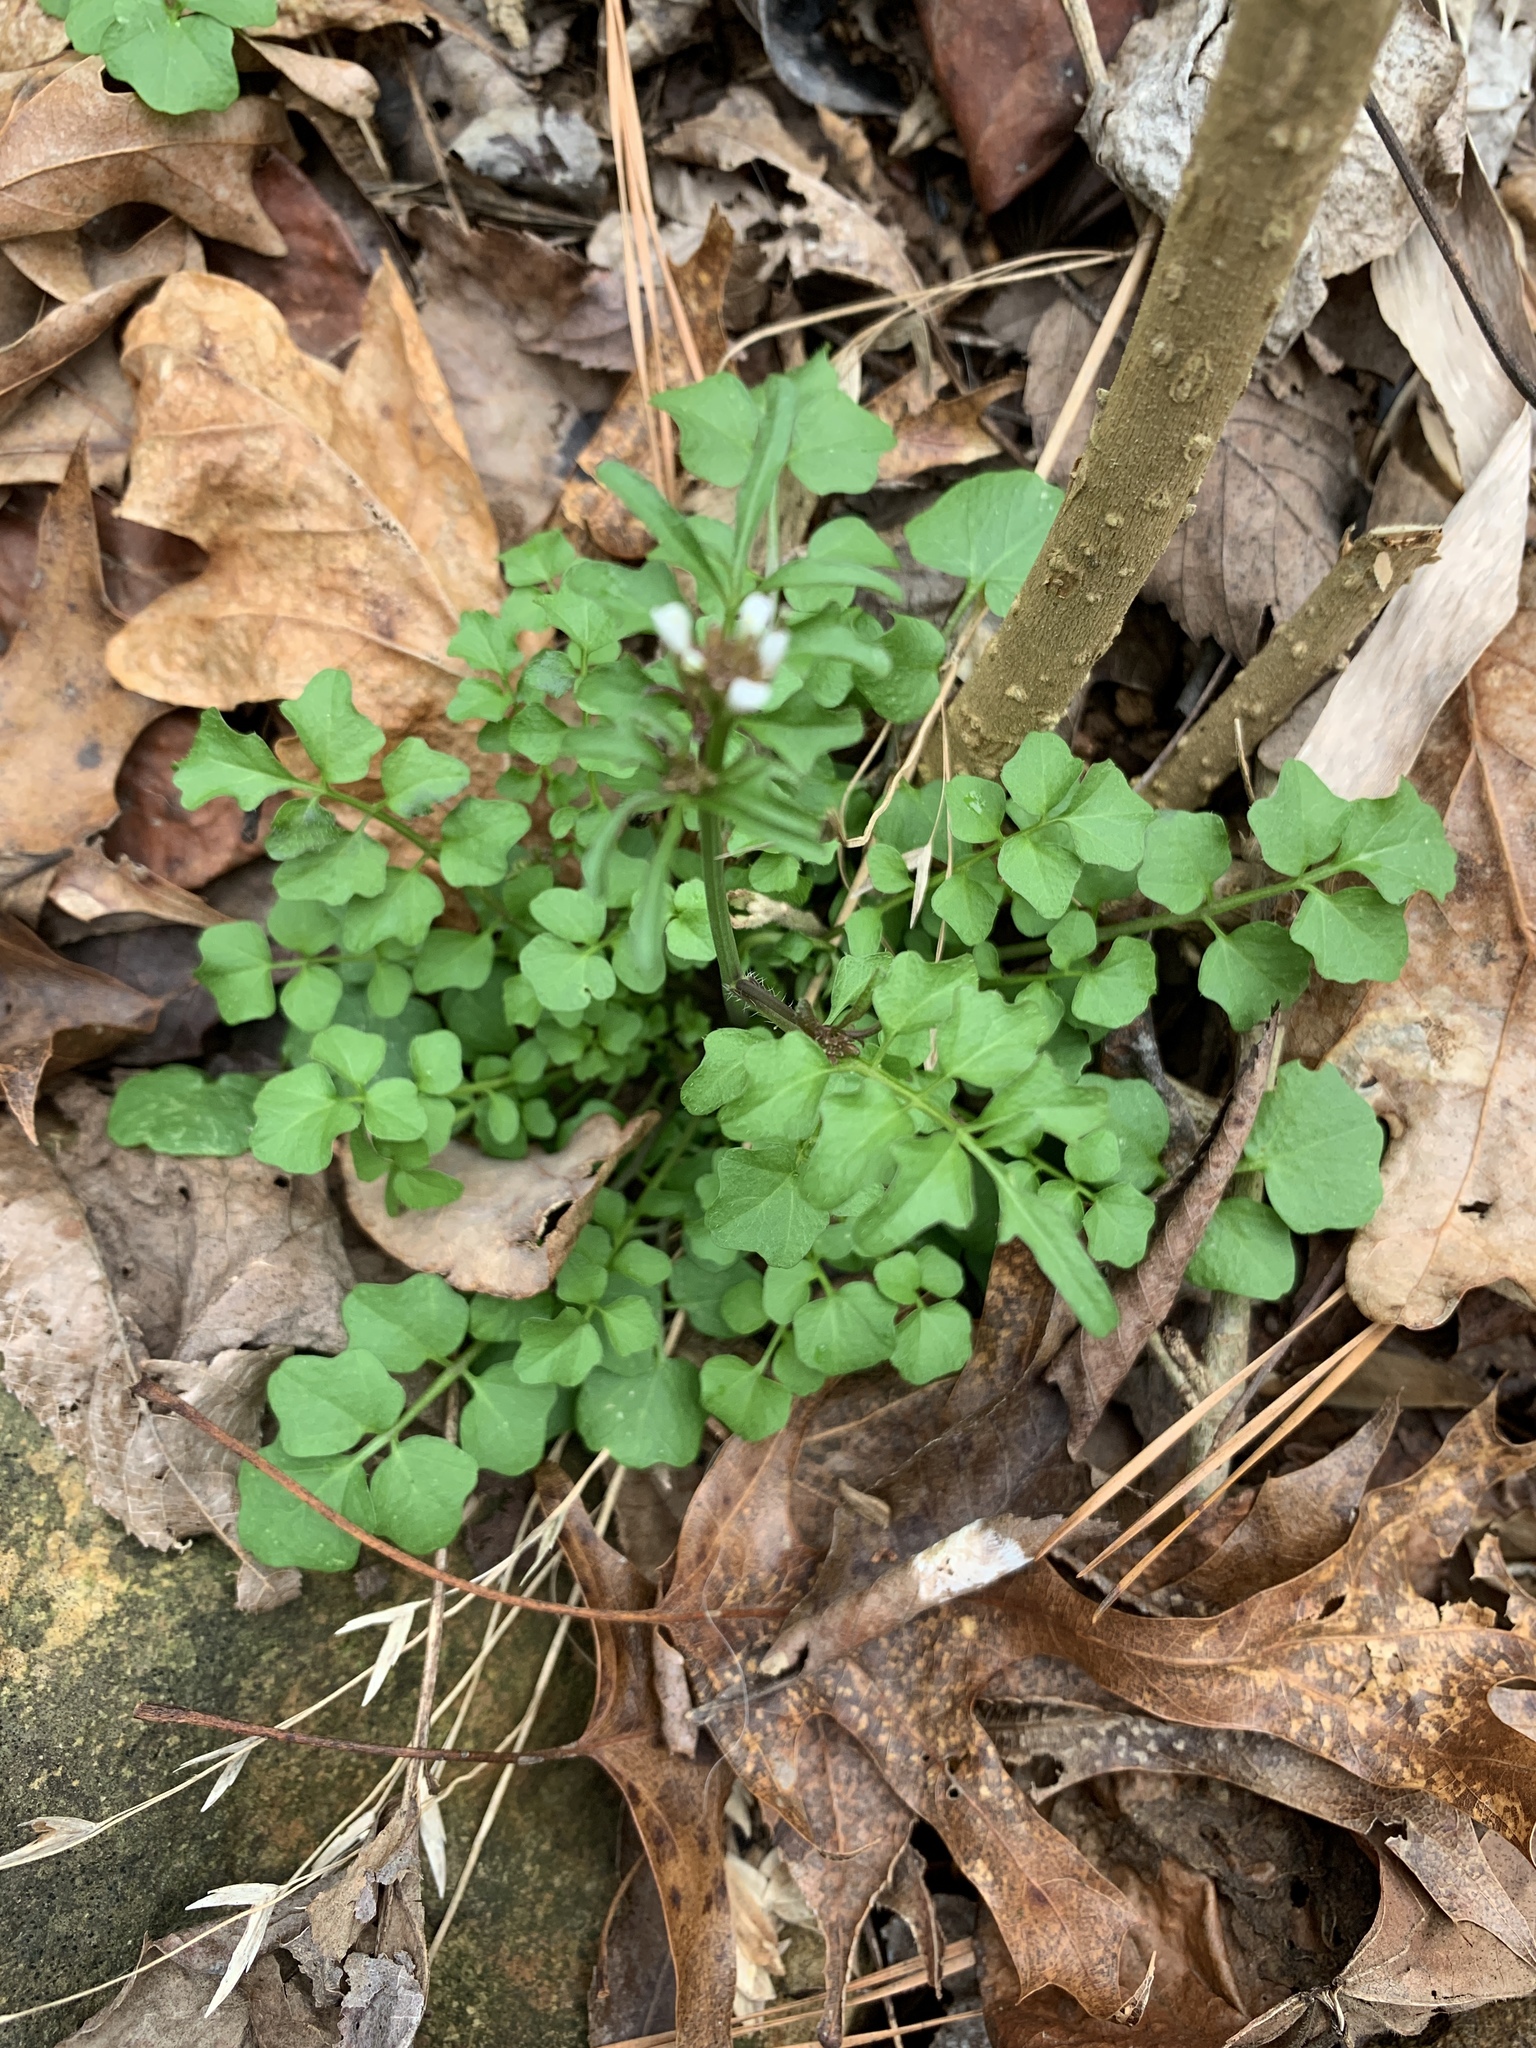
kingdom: Plantae
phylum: Tracheophyta
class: Magnoliopsida
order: Brassicales
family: Brassicaceae
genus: Cardamine
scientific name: Cardamine hirsuta
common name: Hairy bittercress
